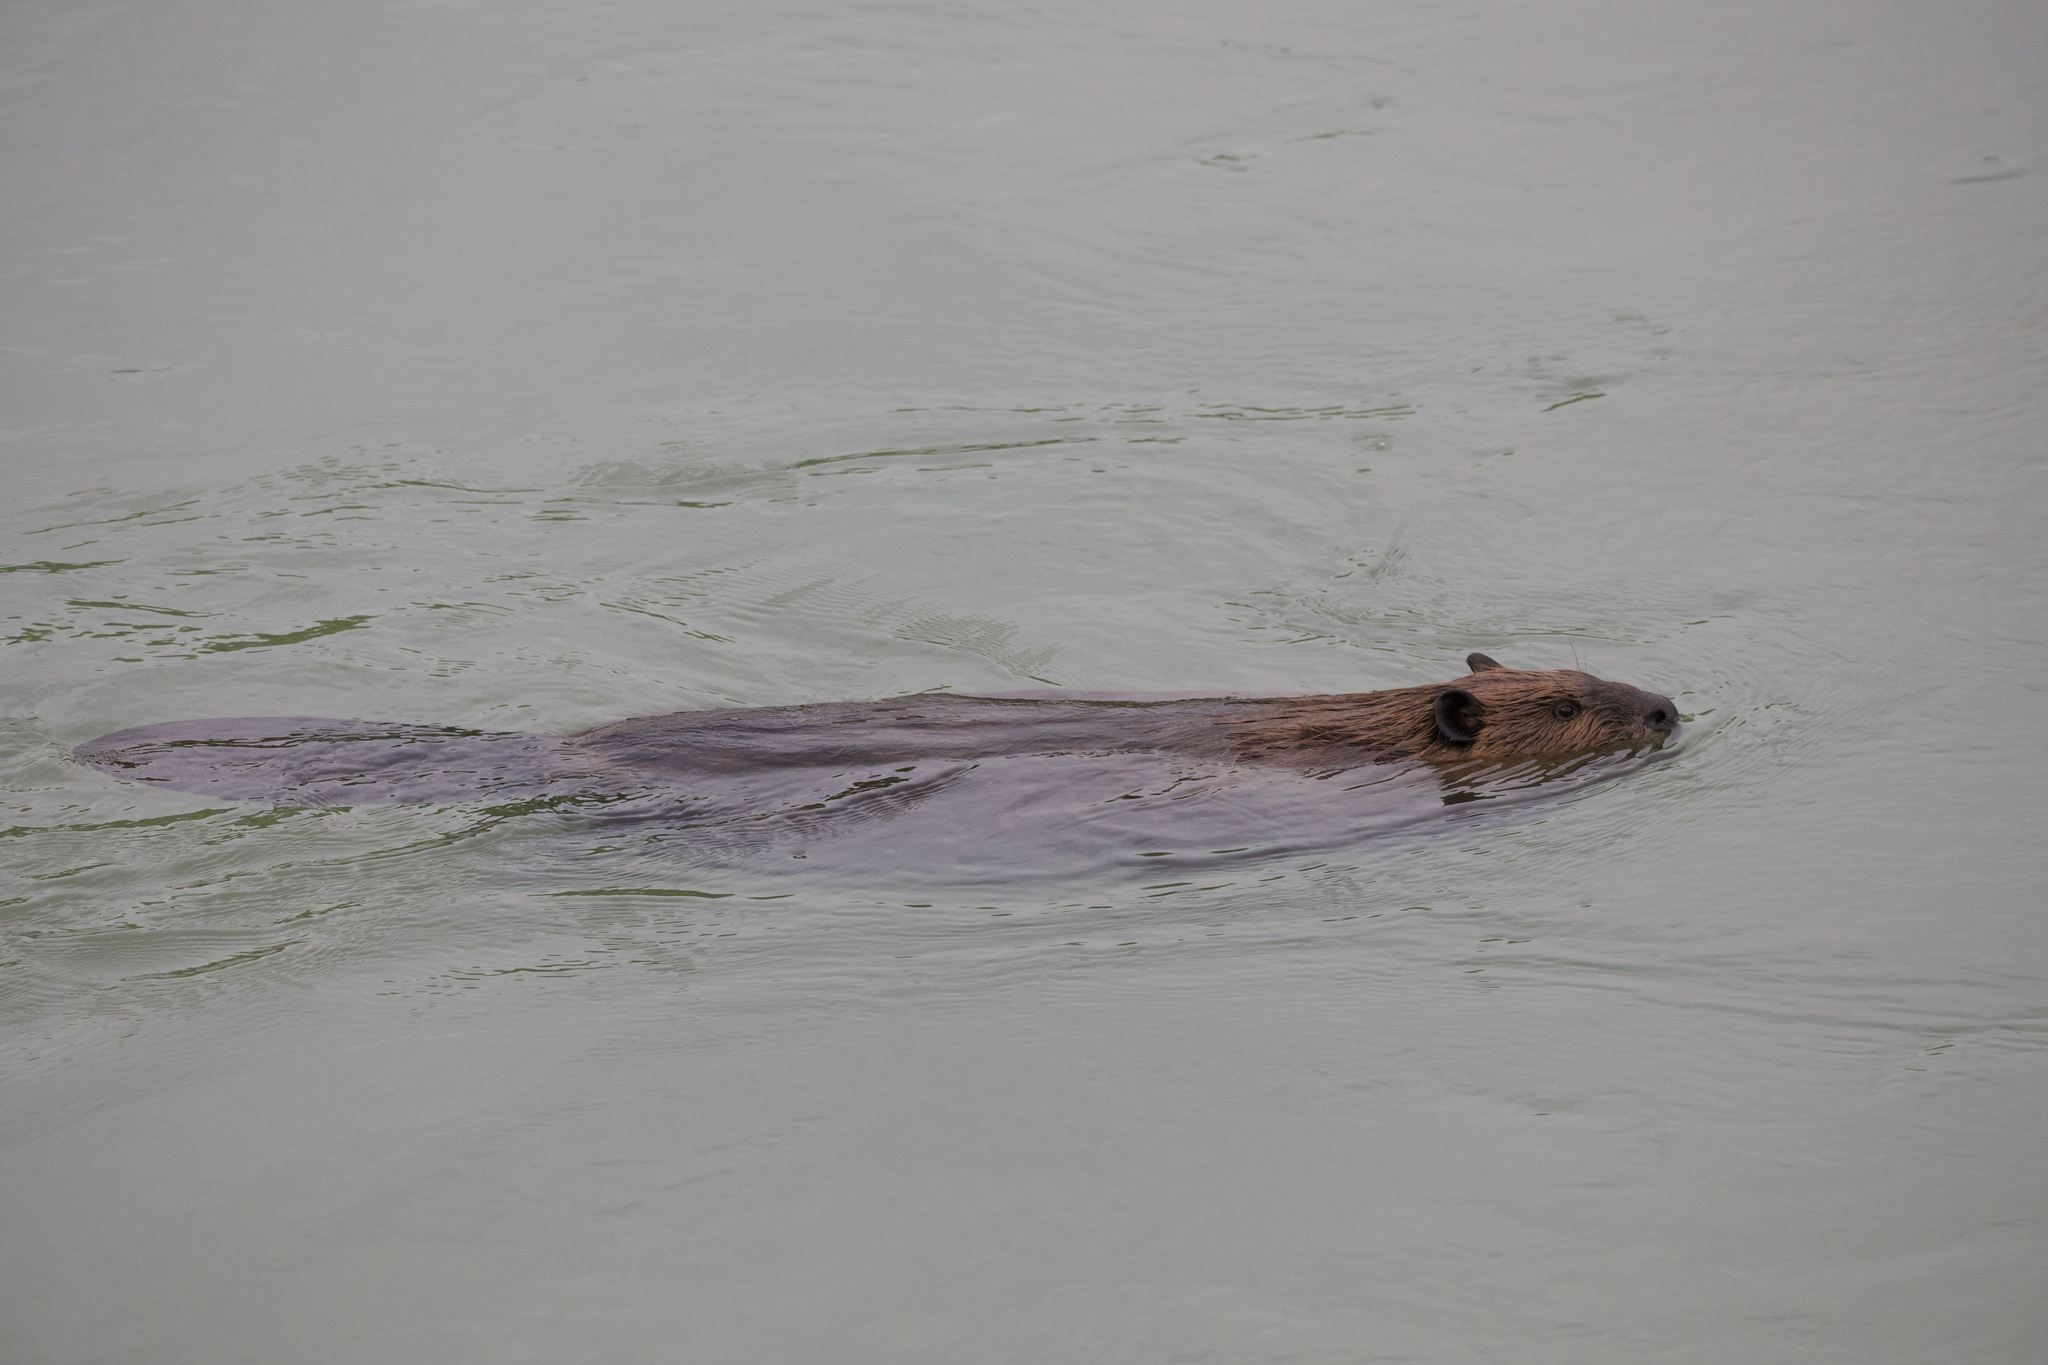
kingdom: Animalia
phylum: Chordata
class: Mammalia
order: Rodentia
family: Castoridae
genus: Castor
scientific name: Castor canadensis
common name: American beaver
